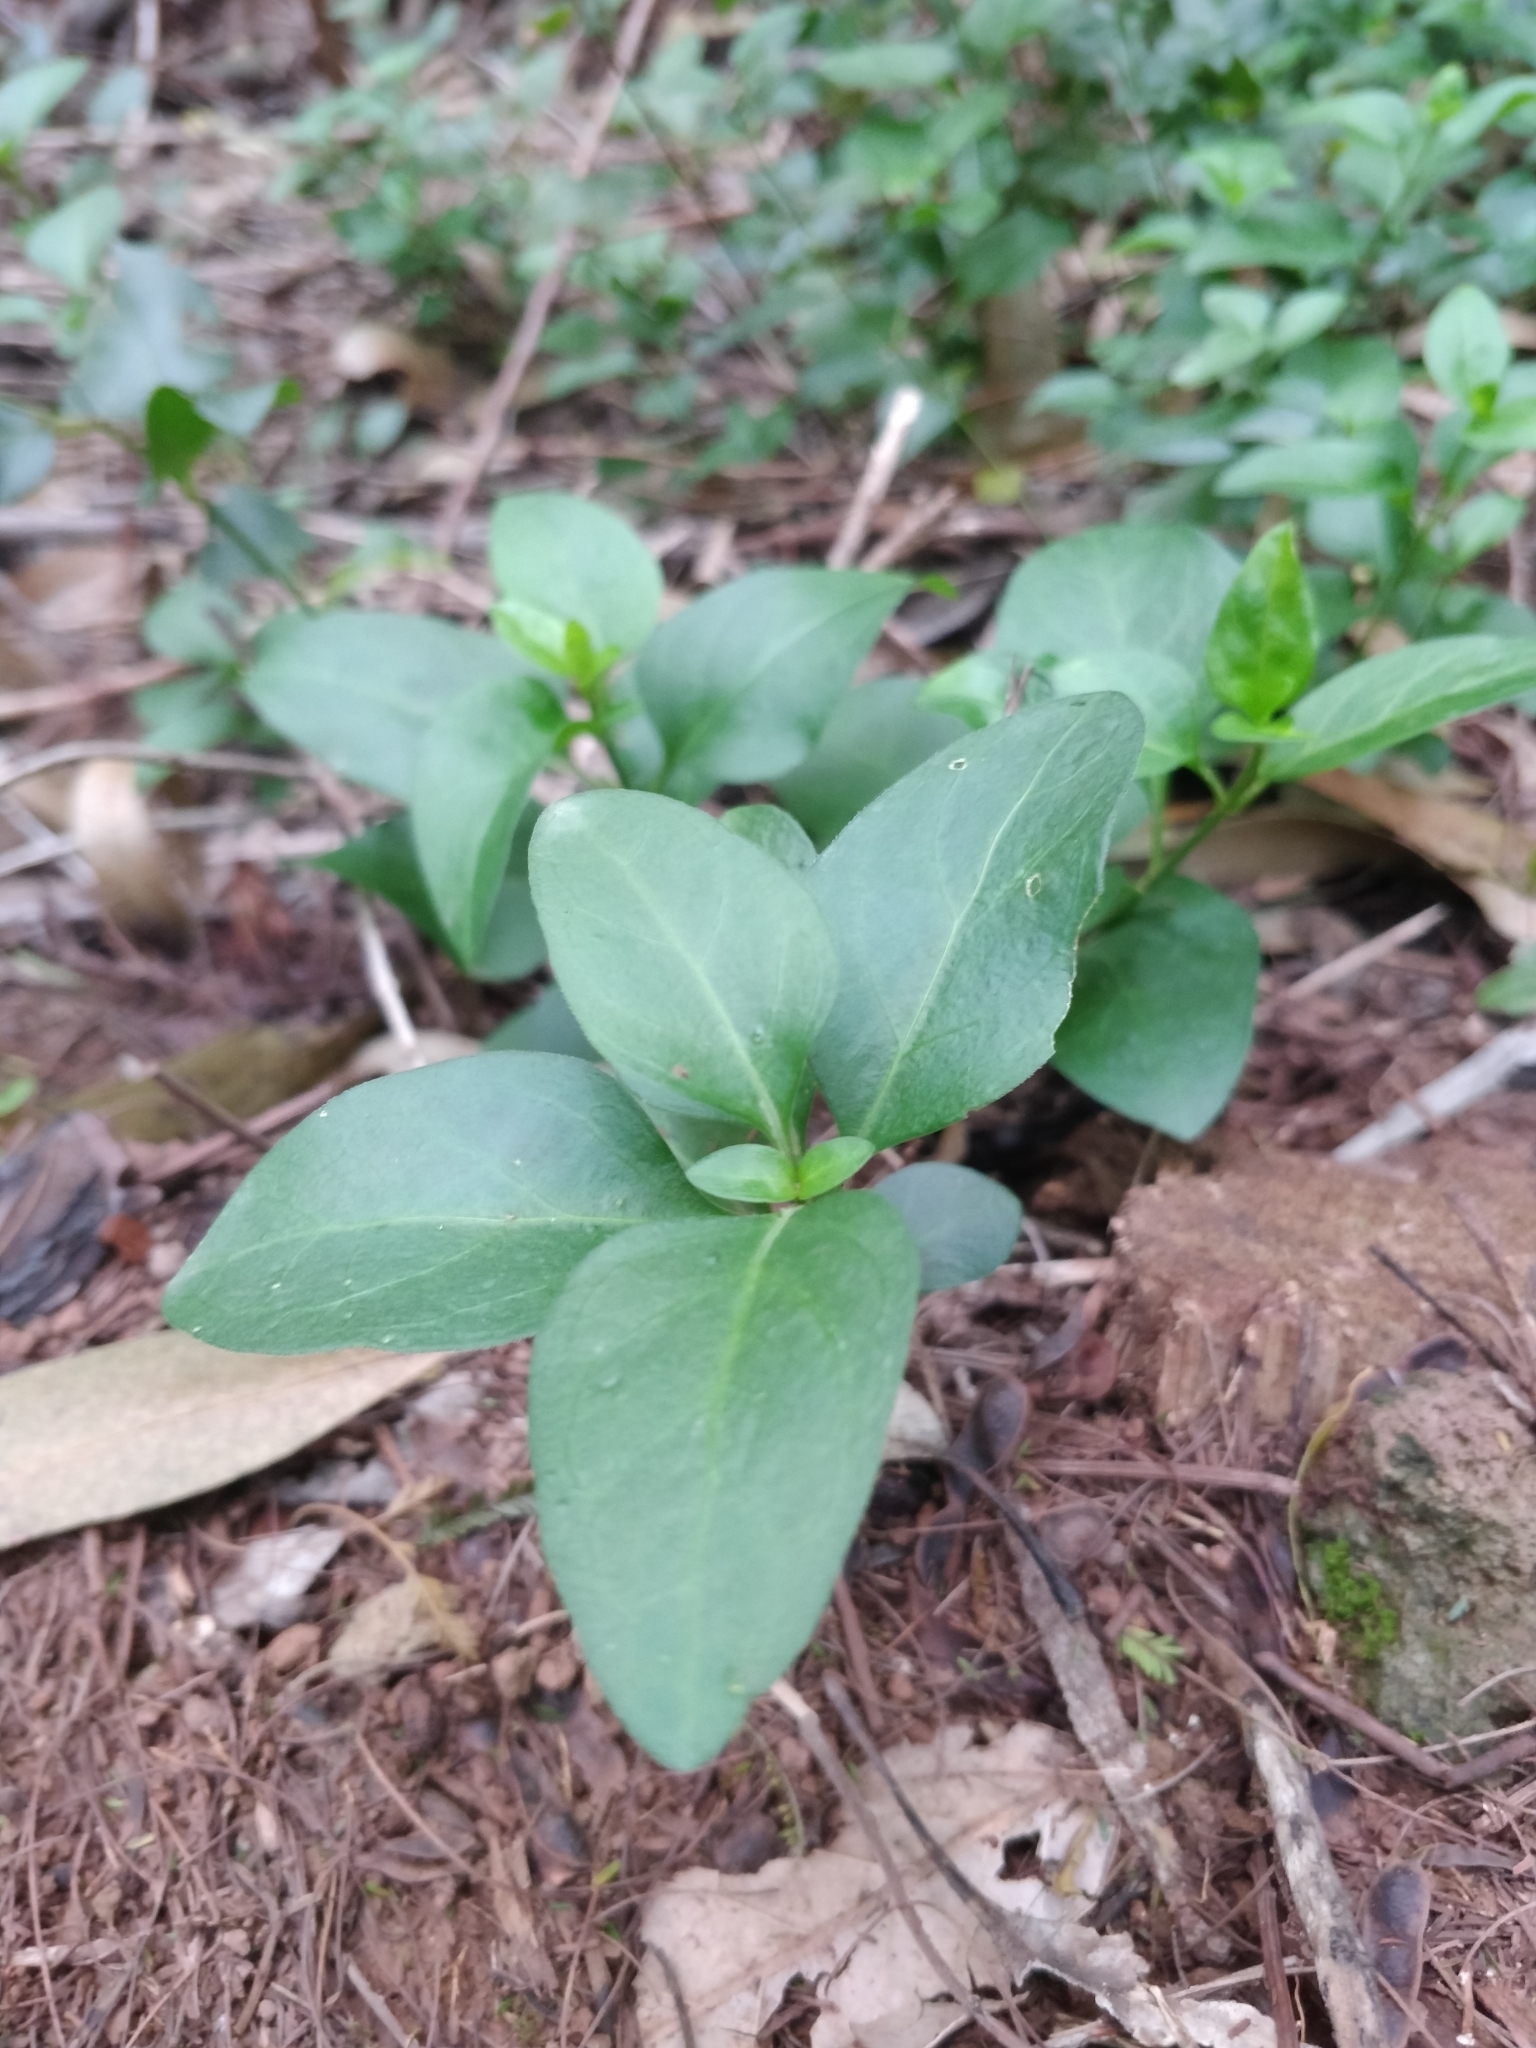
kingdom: Plantae
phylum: Tracheophyta
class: Magnoliopsida
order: Gentianales
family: Apocynaceae
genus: Vinca
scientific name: Vinca major
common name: Greater periwinkle
